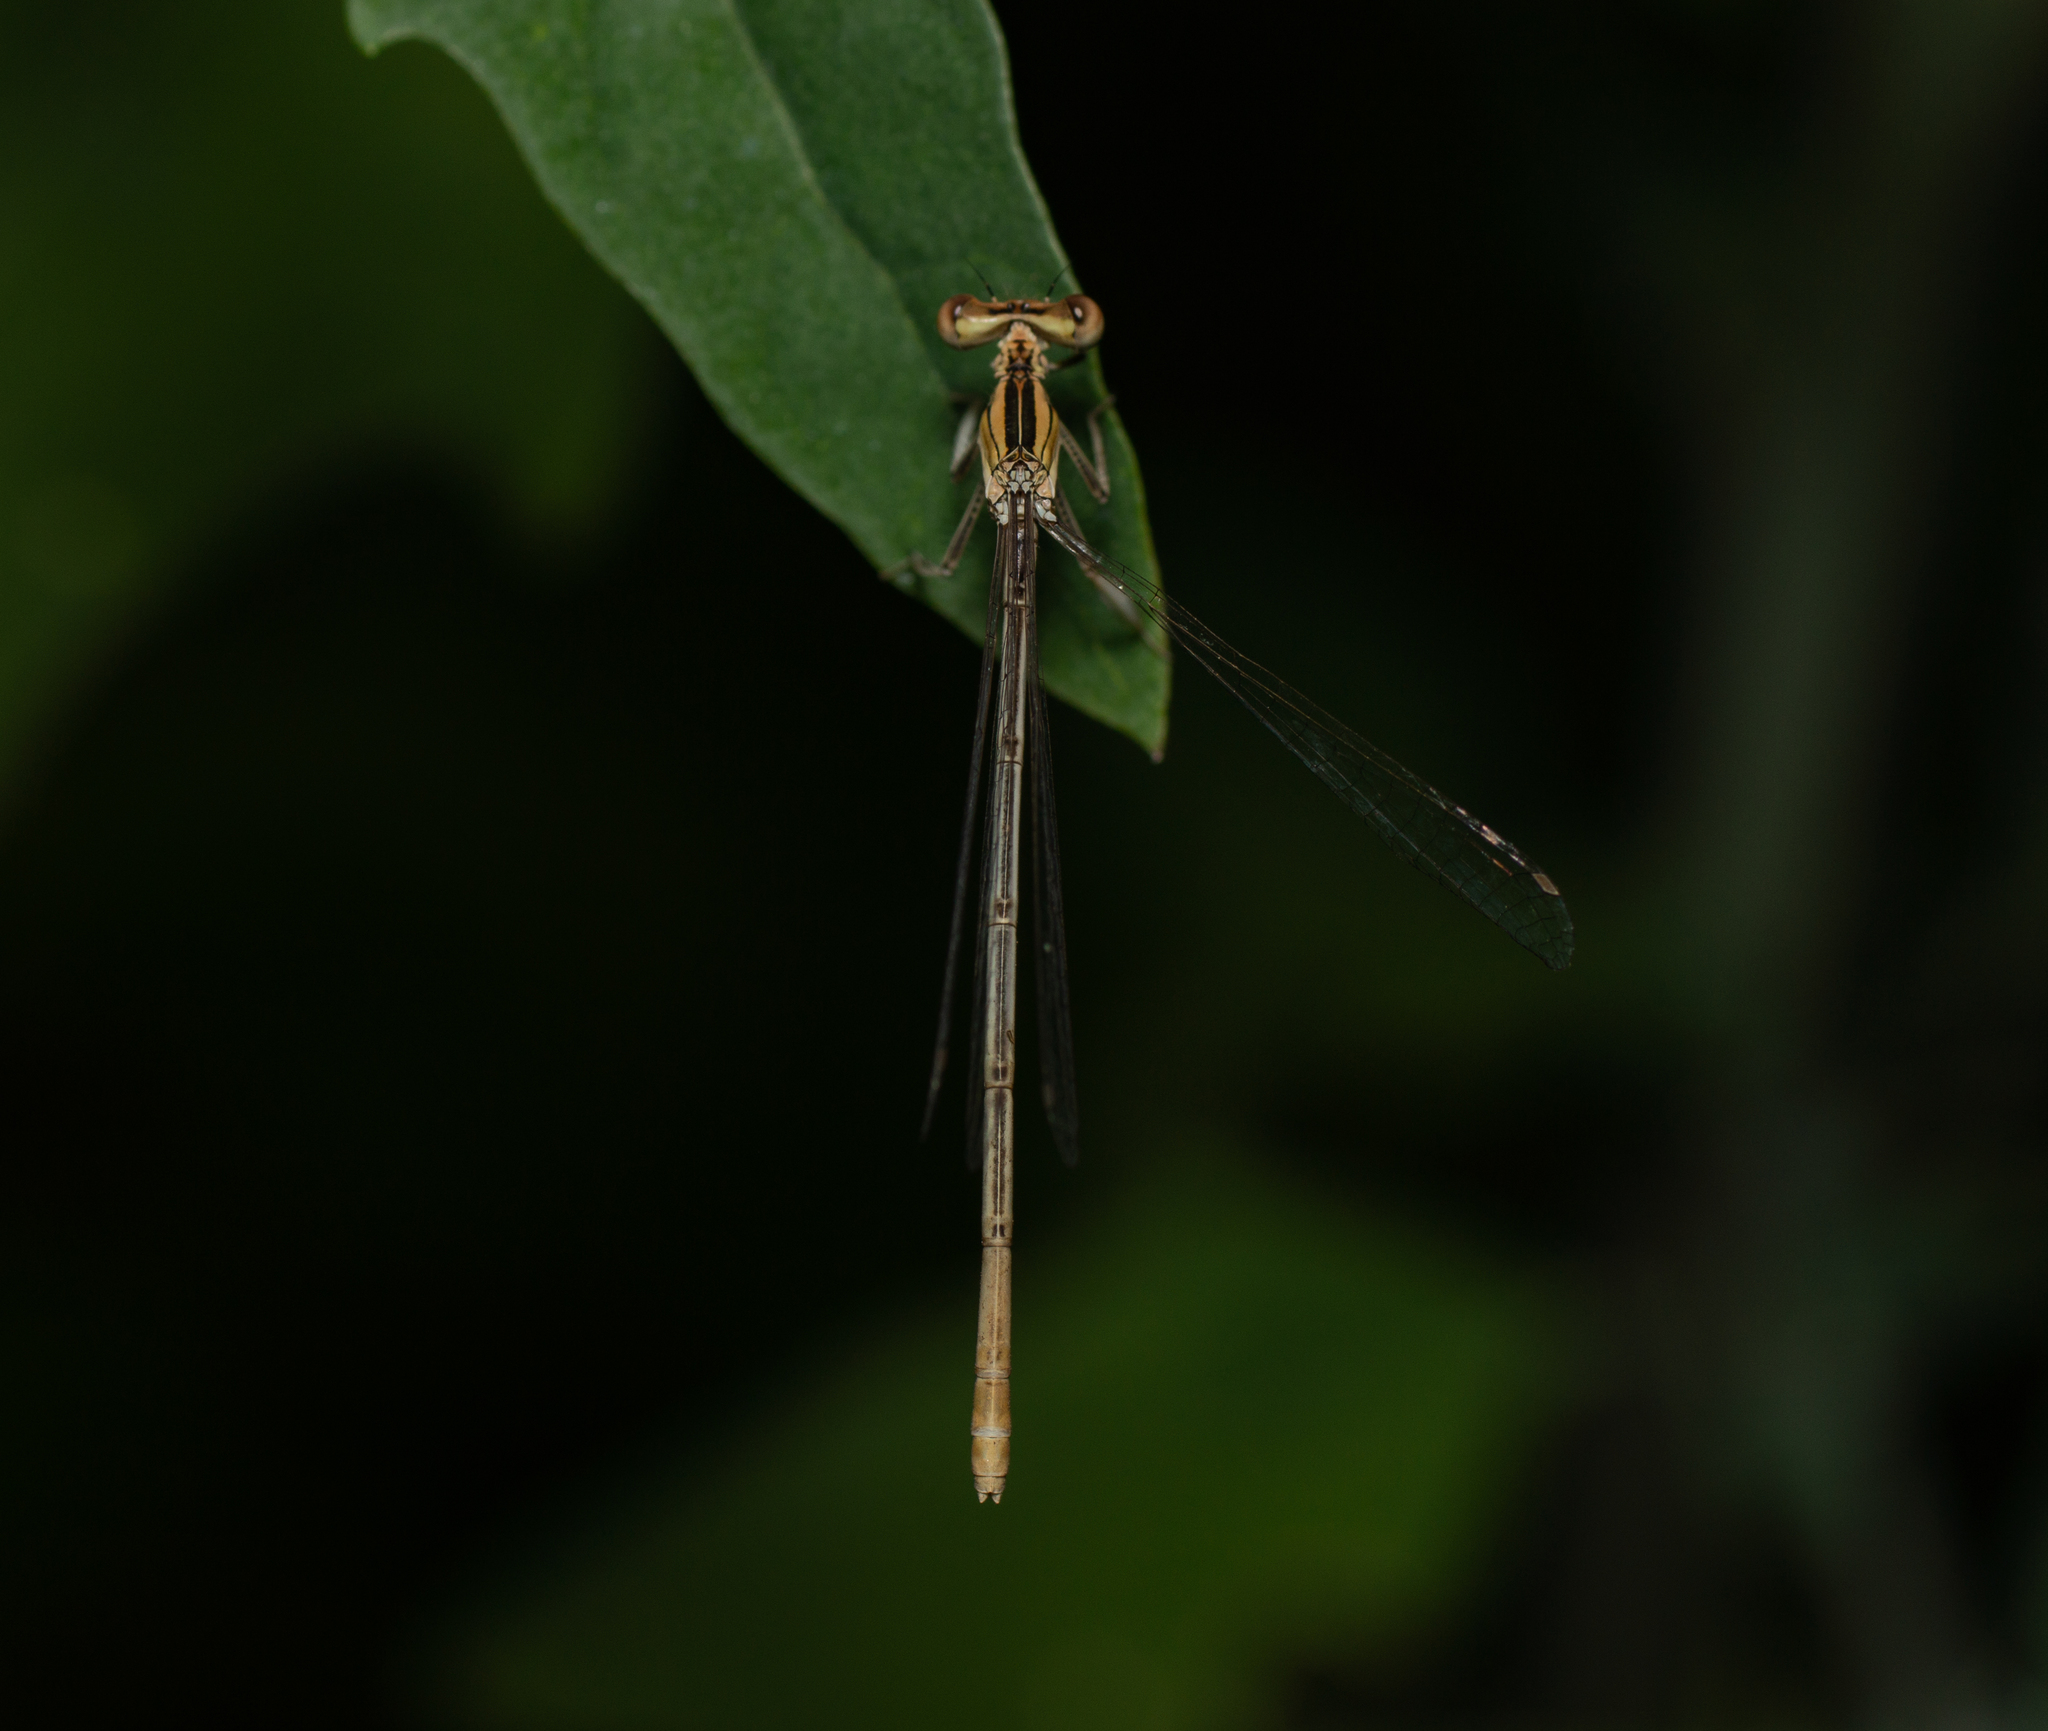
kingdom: Animalia
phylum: Arthropoda
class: Insecta
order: Odonata
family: Platycnemididae
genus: Platycnemis
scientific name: Platycnemis latipes
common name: White featherleg
